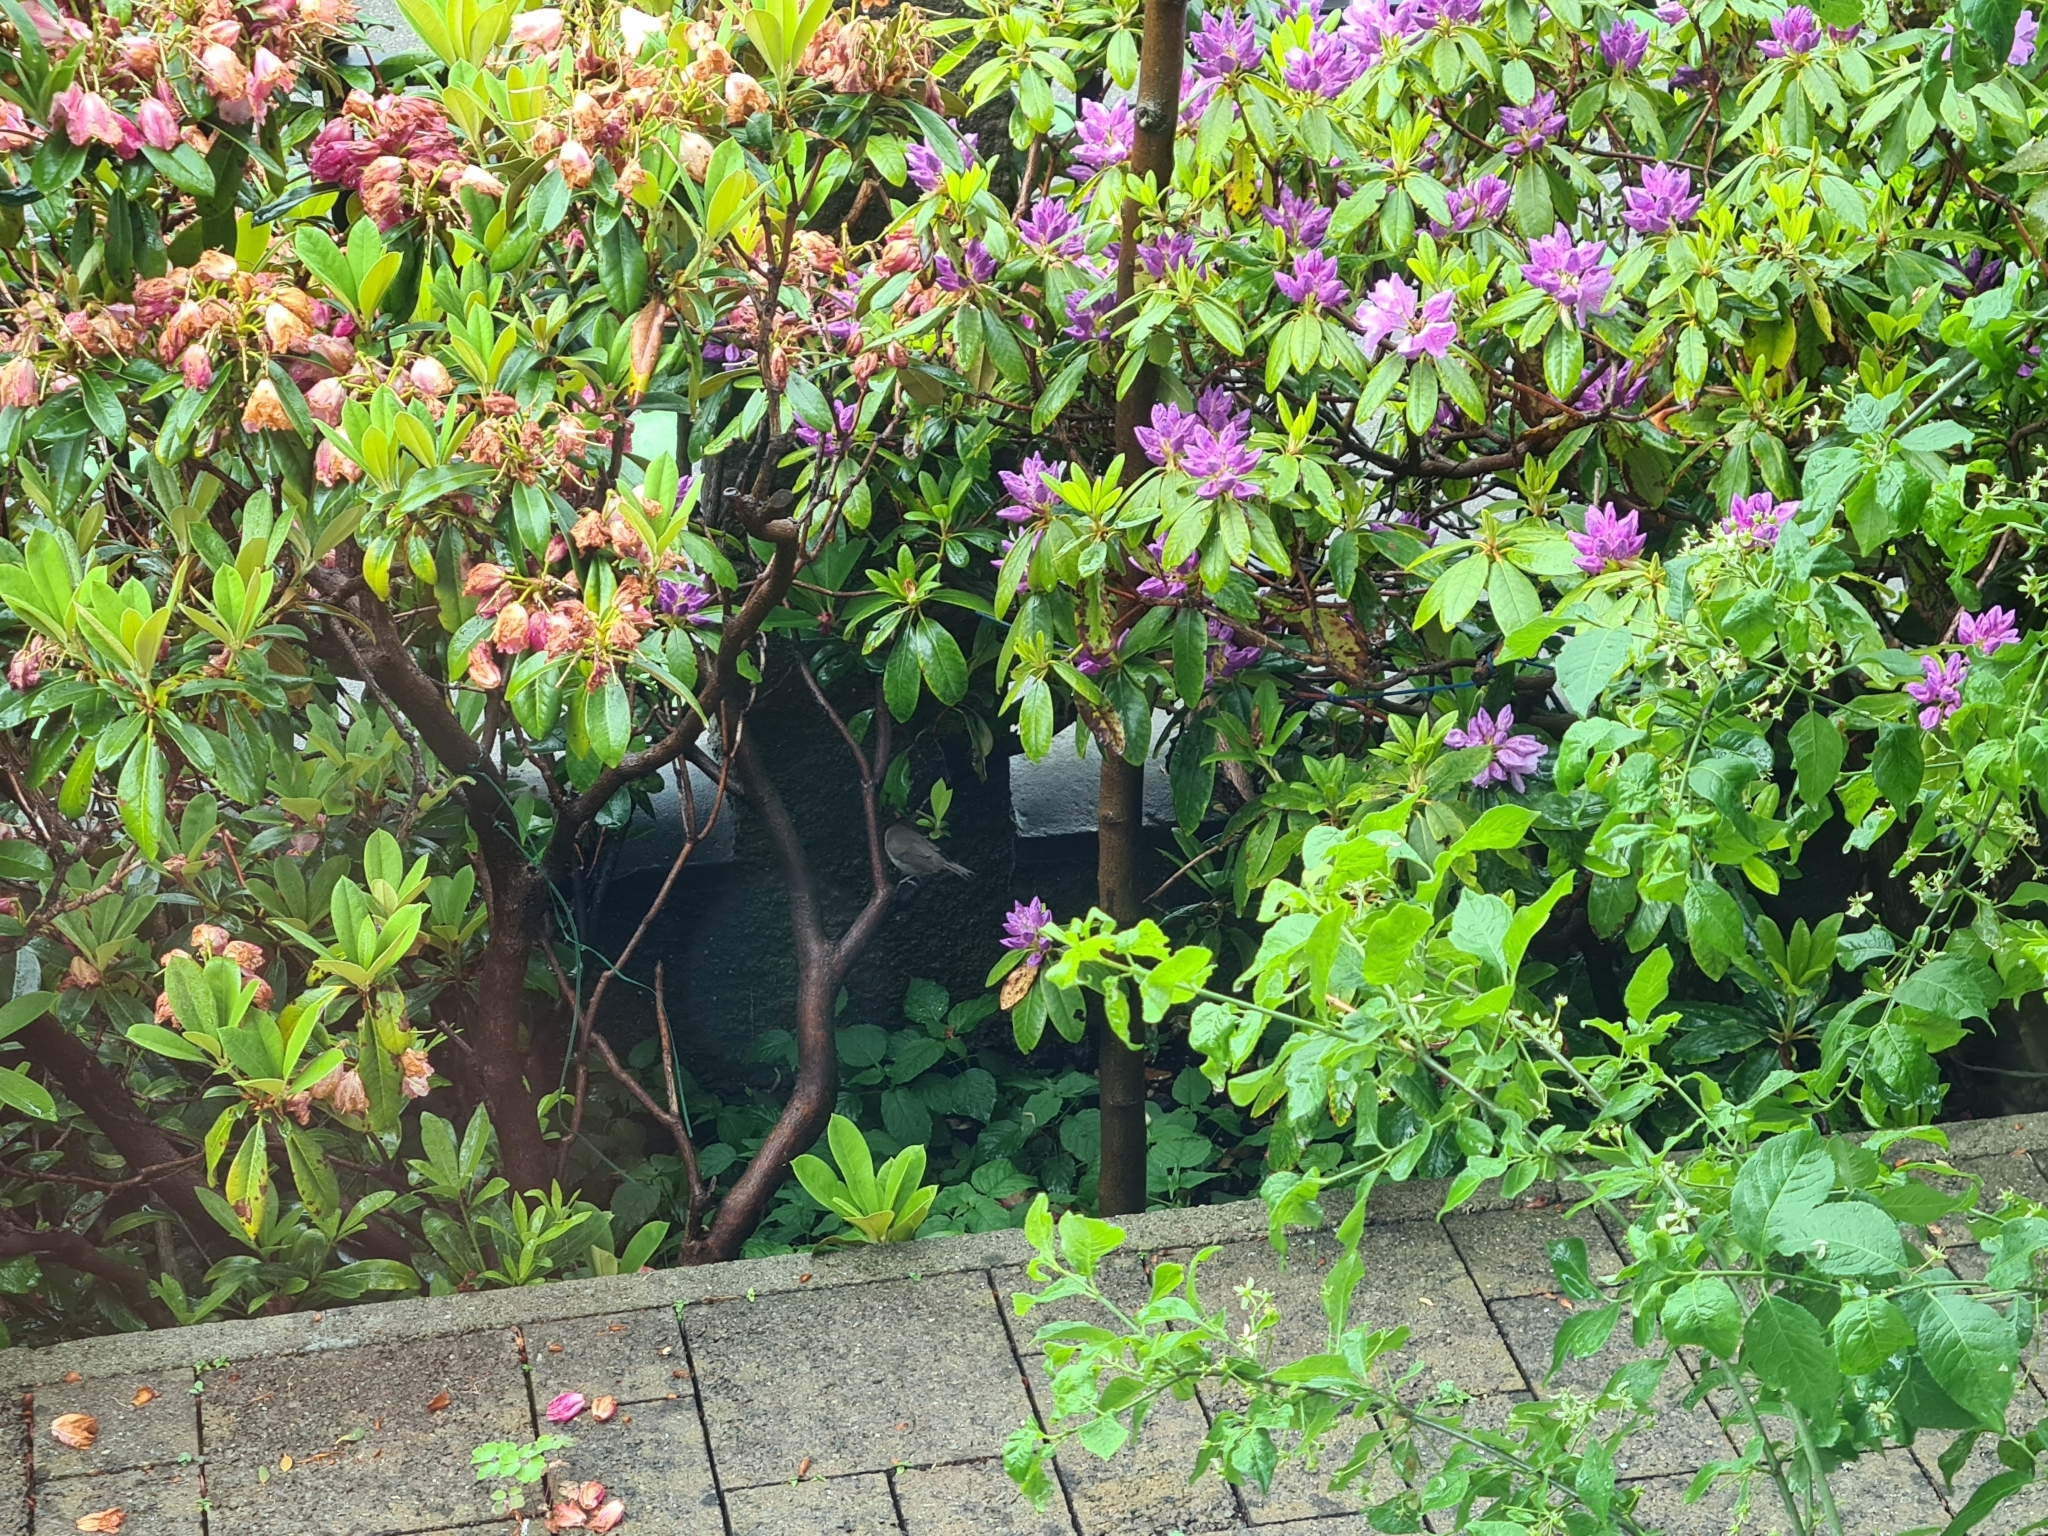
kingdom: Animalia
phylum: Chordata
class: Aves
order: Passeriformes
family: Sylviidae
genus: Sylvia
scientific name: Sylvia atricapilla
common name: Eurasian blackcap
